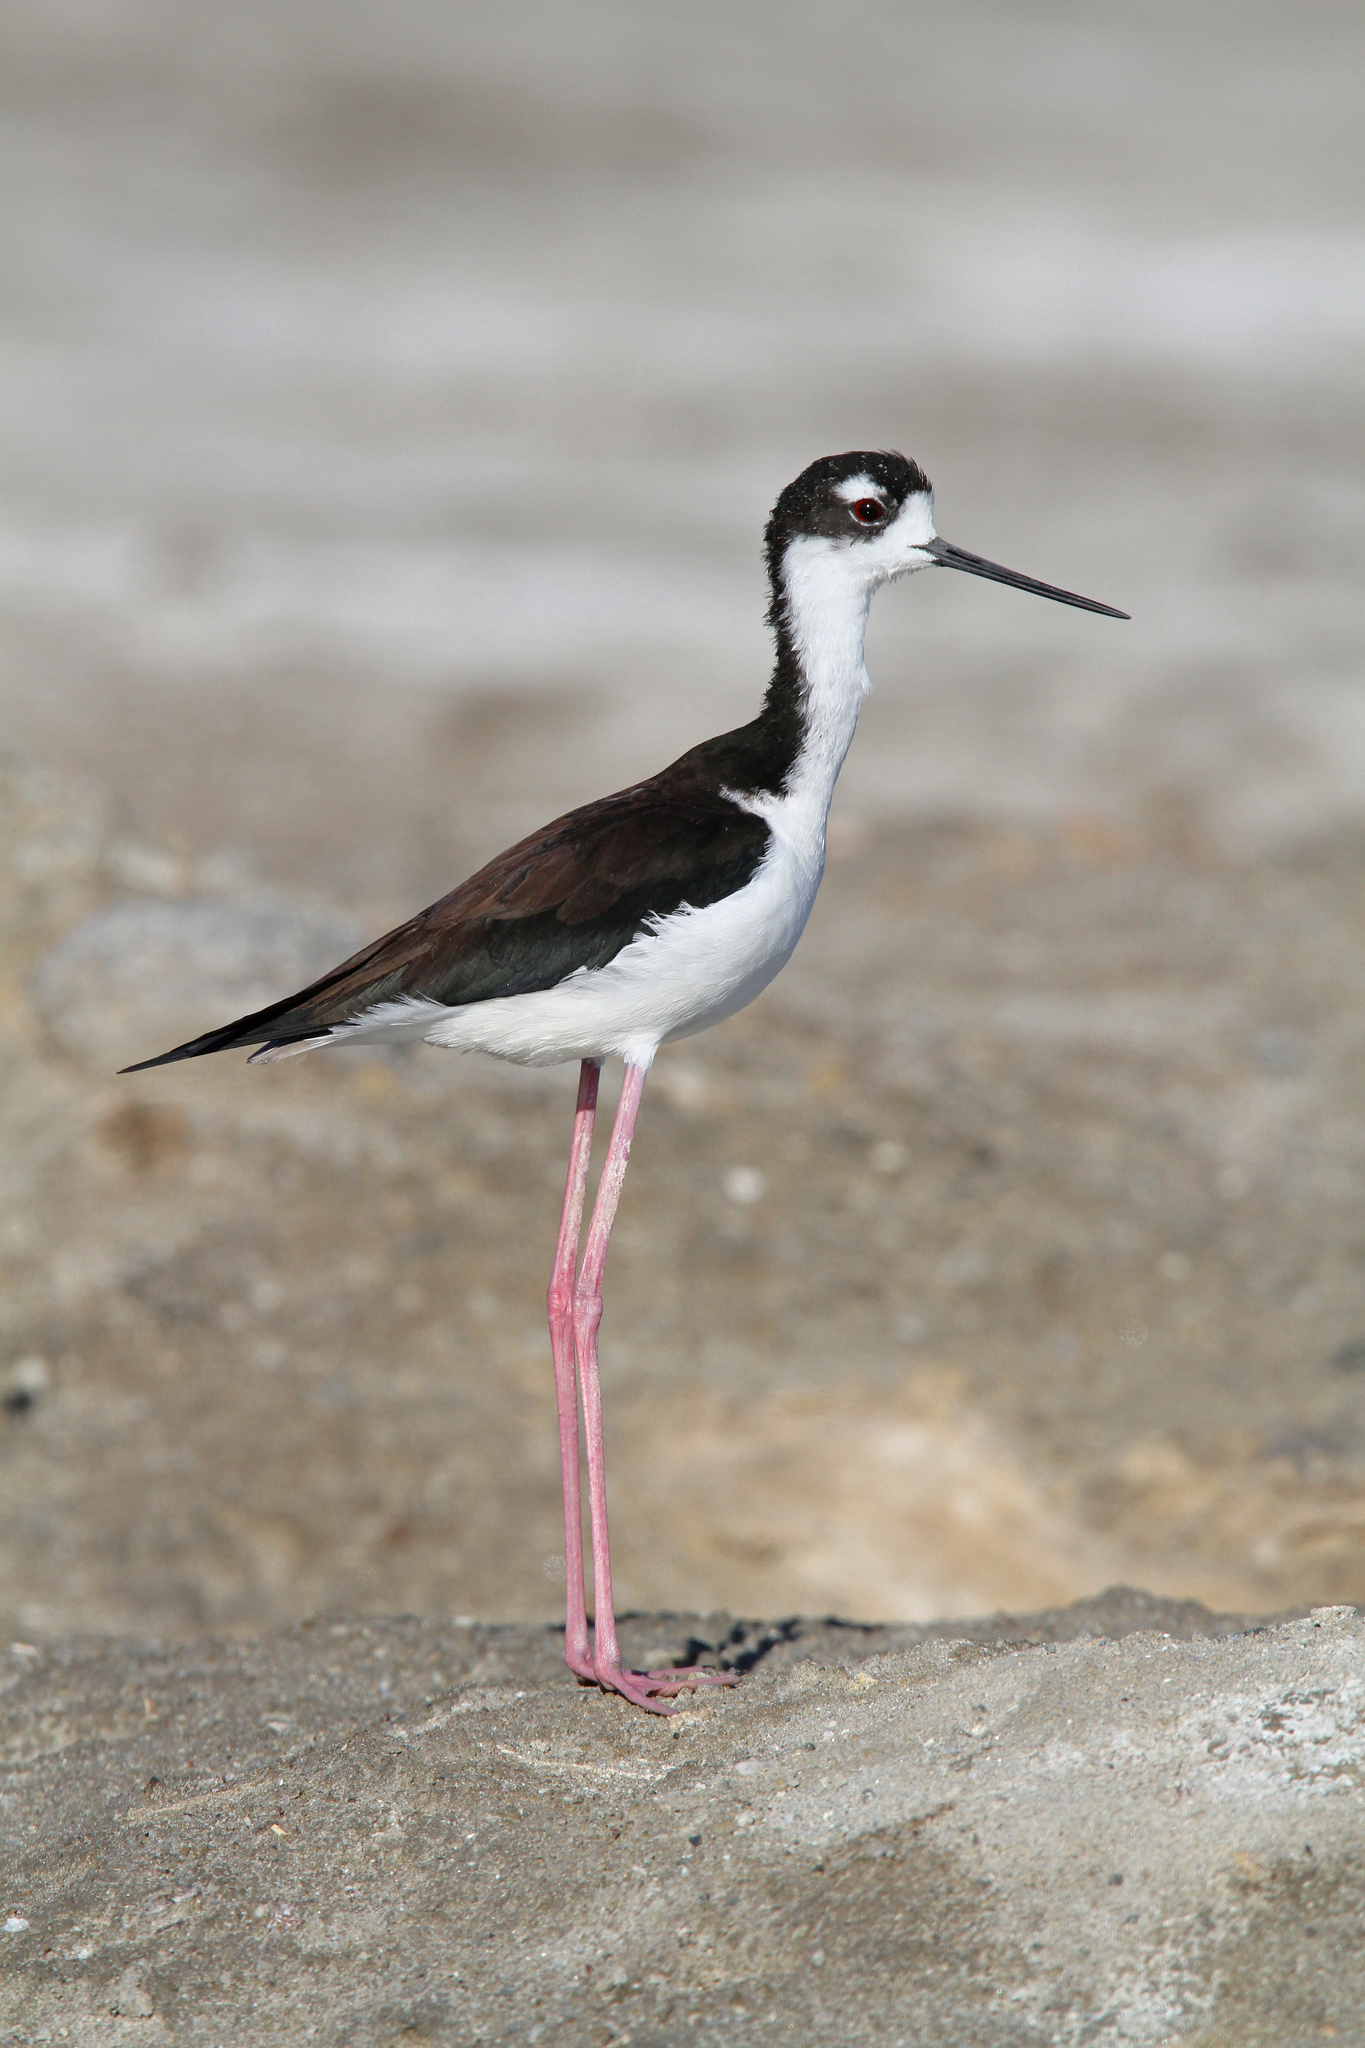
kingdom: Animalia
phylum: Chordata
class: Aves
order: Charadriiformes
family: Recurvirostridae
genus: Himantopus
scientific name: Himantopus mexicanus
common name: Black-necked stilt
